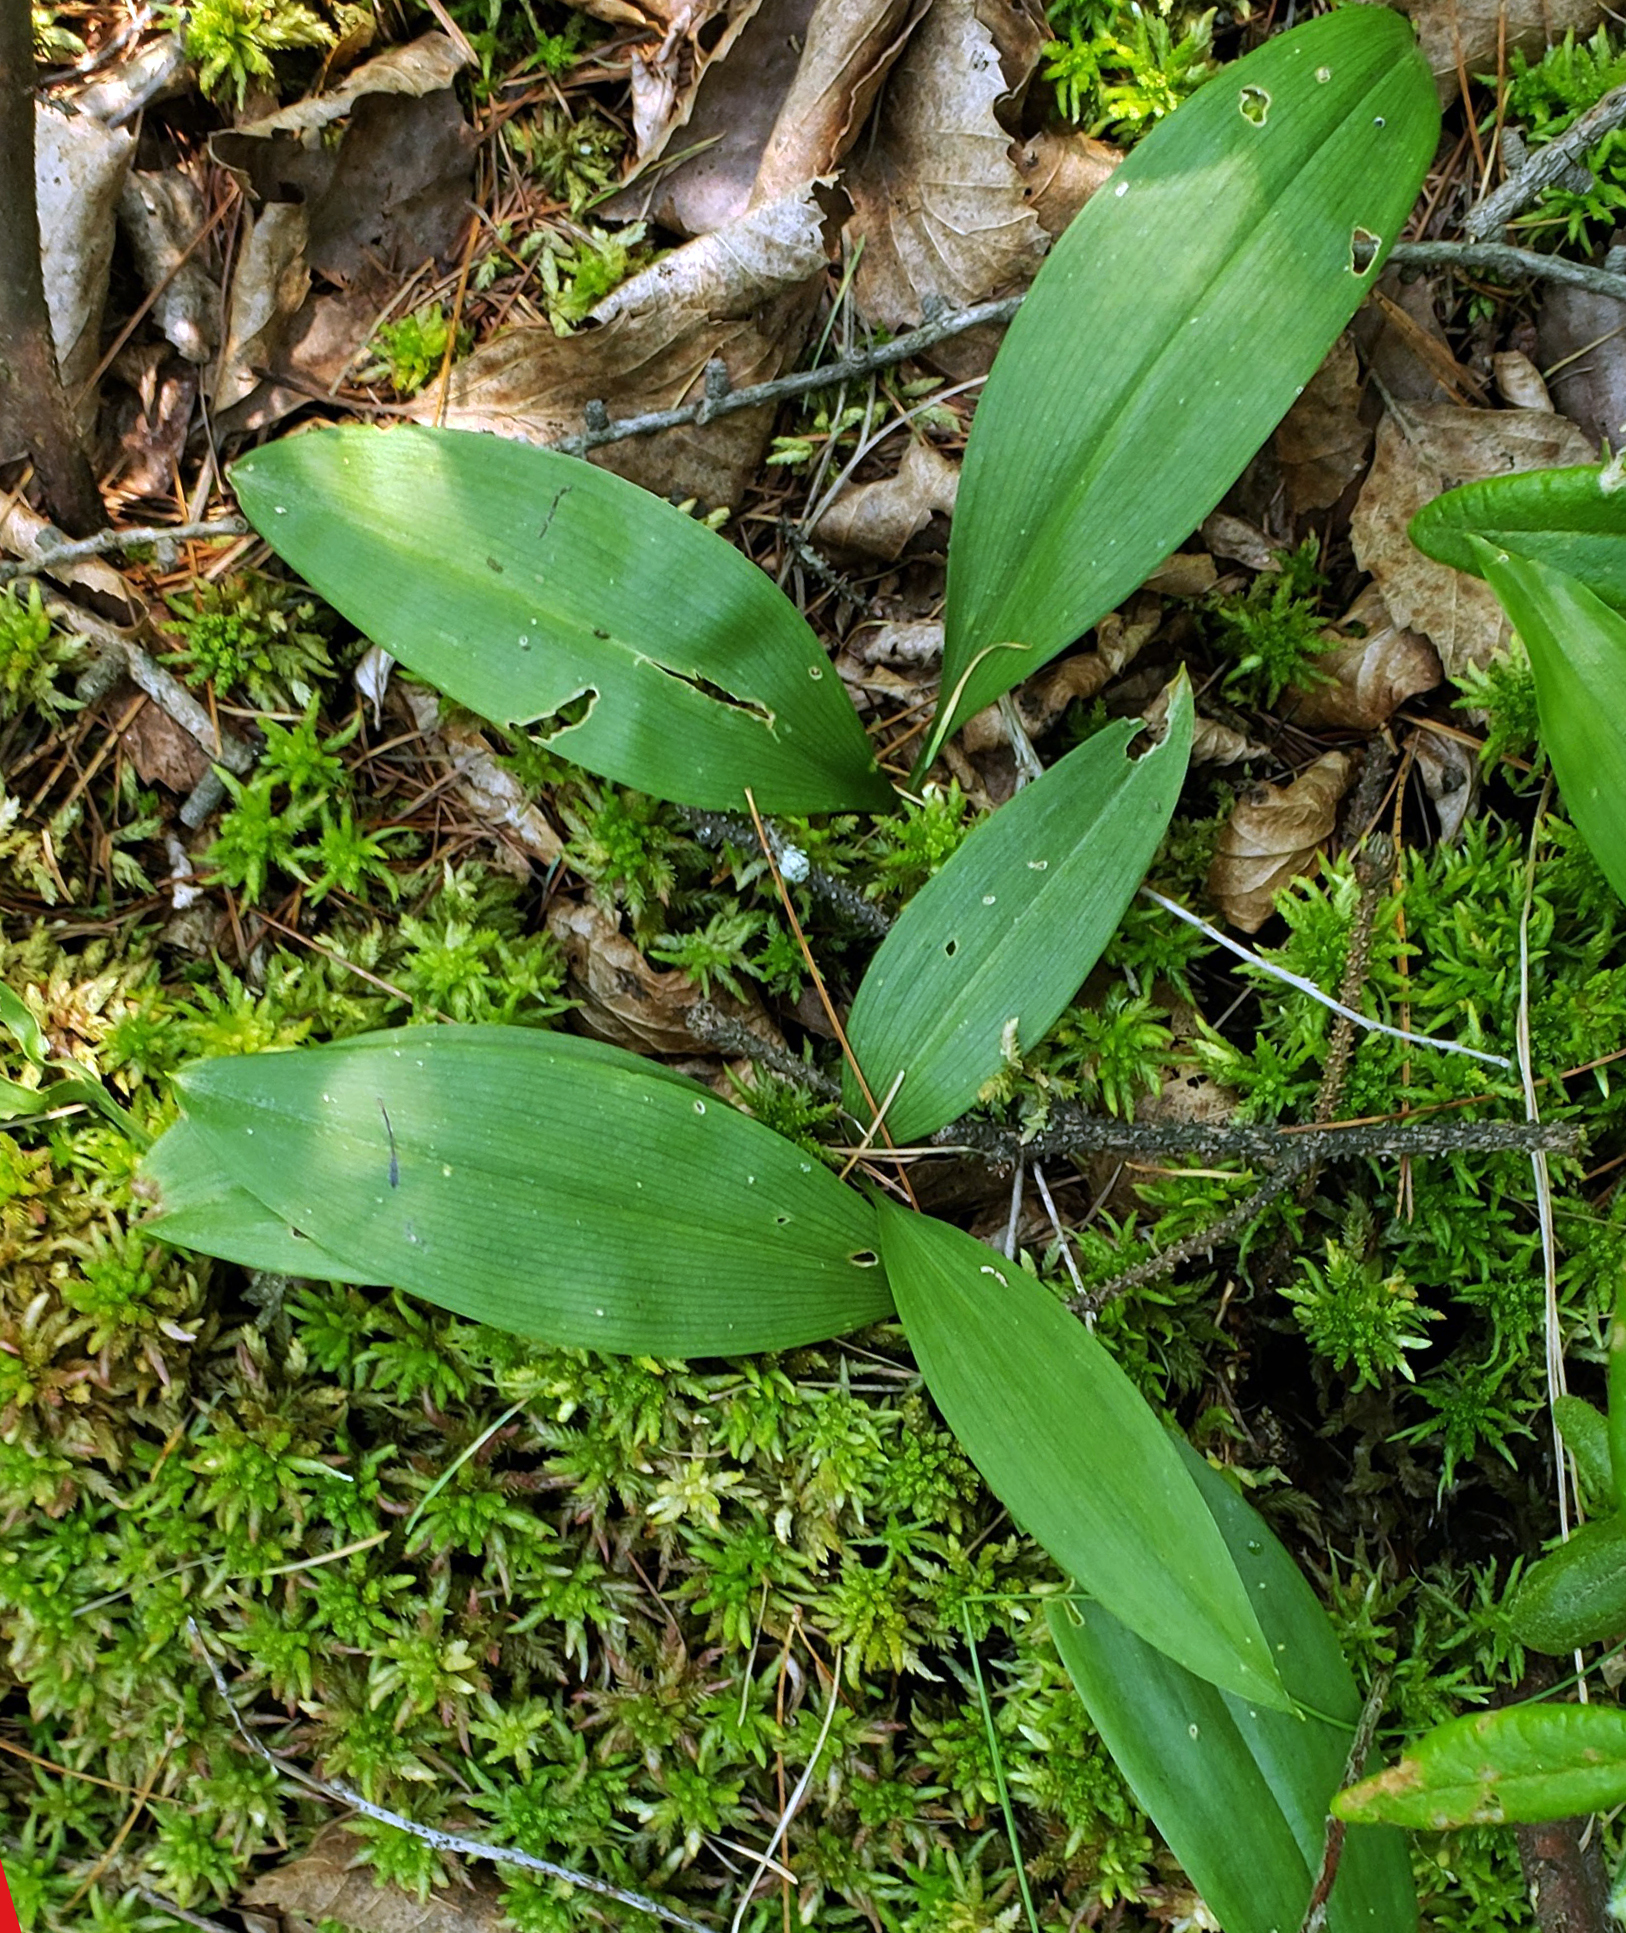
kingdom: Plantae
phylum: Tracheophyta
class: Liliopsida
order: Asparagales
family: Asparagaceae
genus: Maianthemum
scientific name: Maianthemum trifolium
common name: Swamp false solomon's seal
